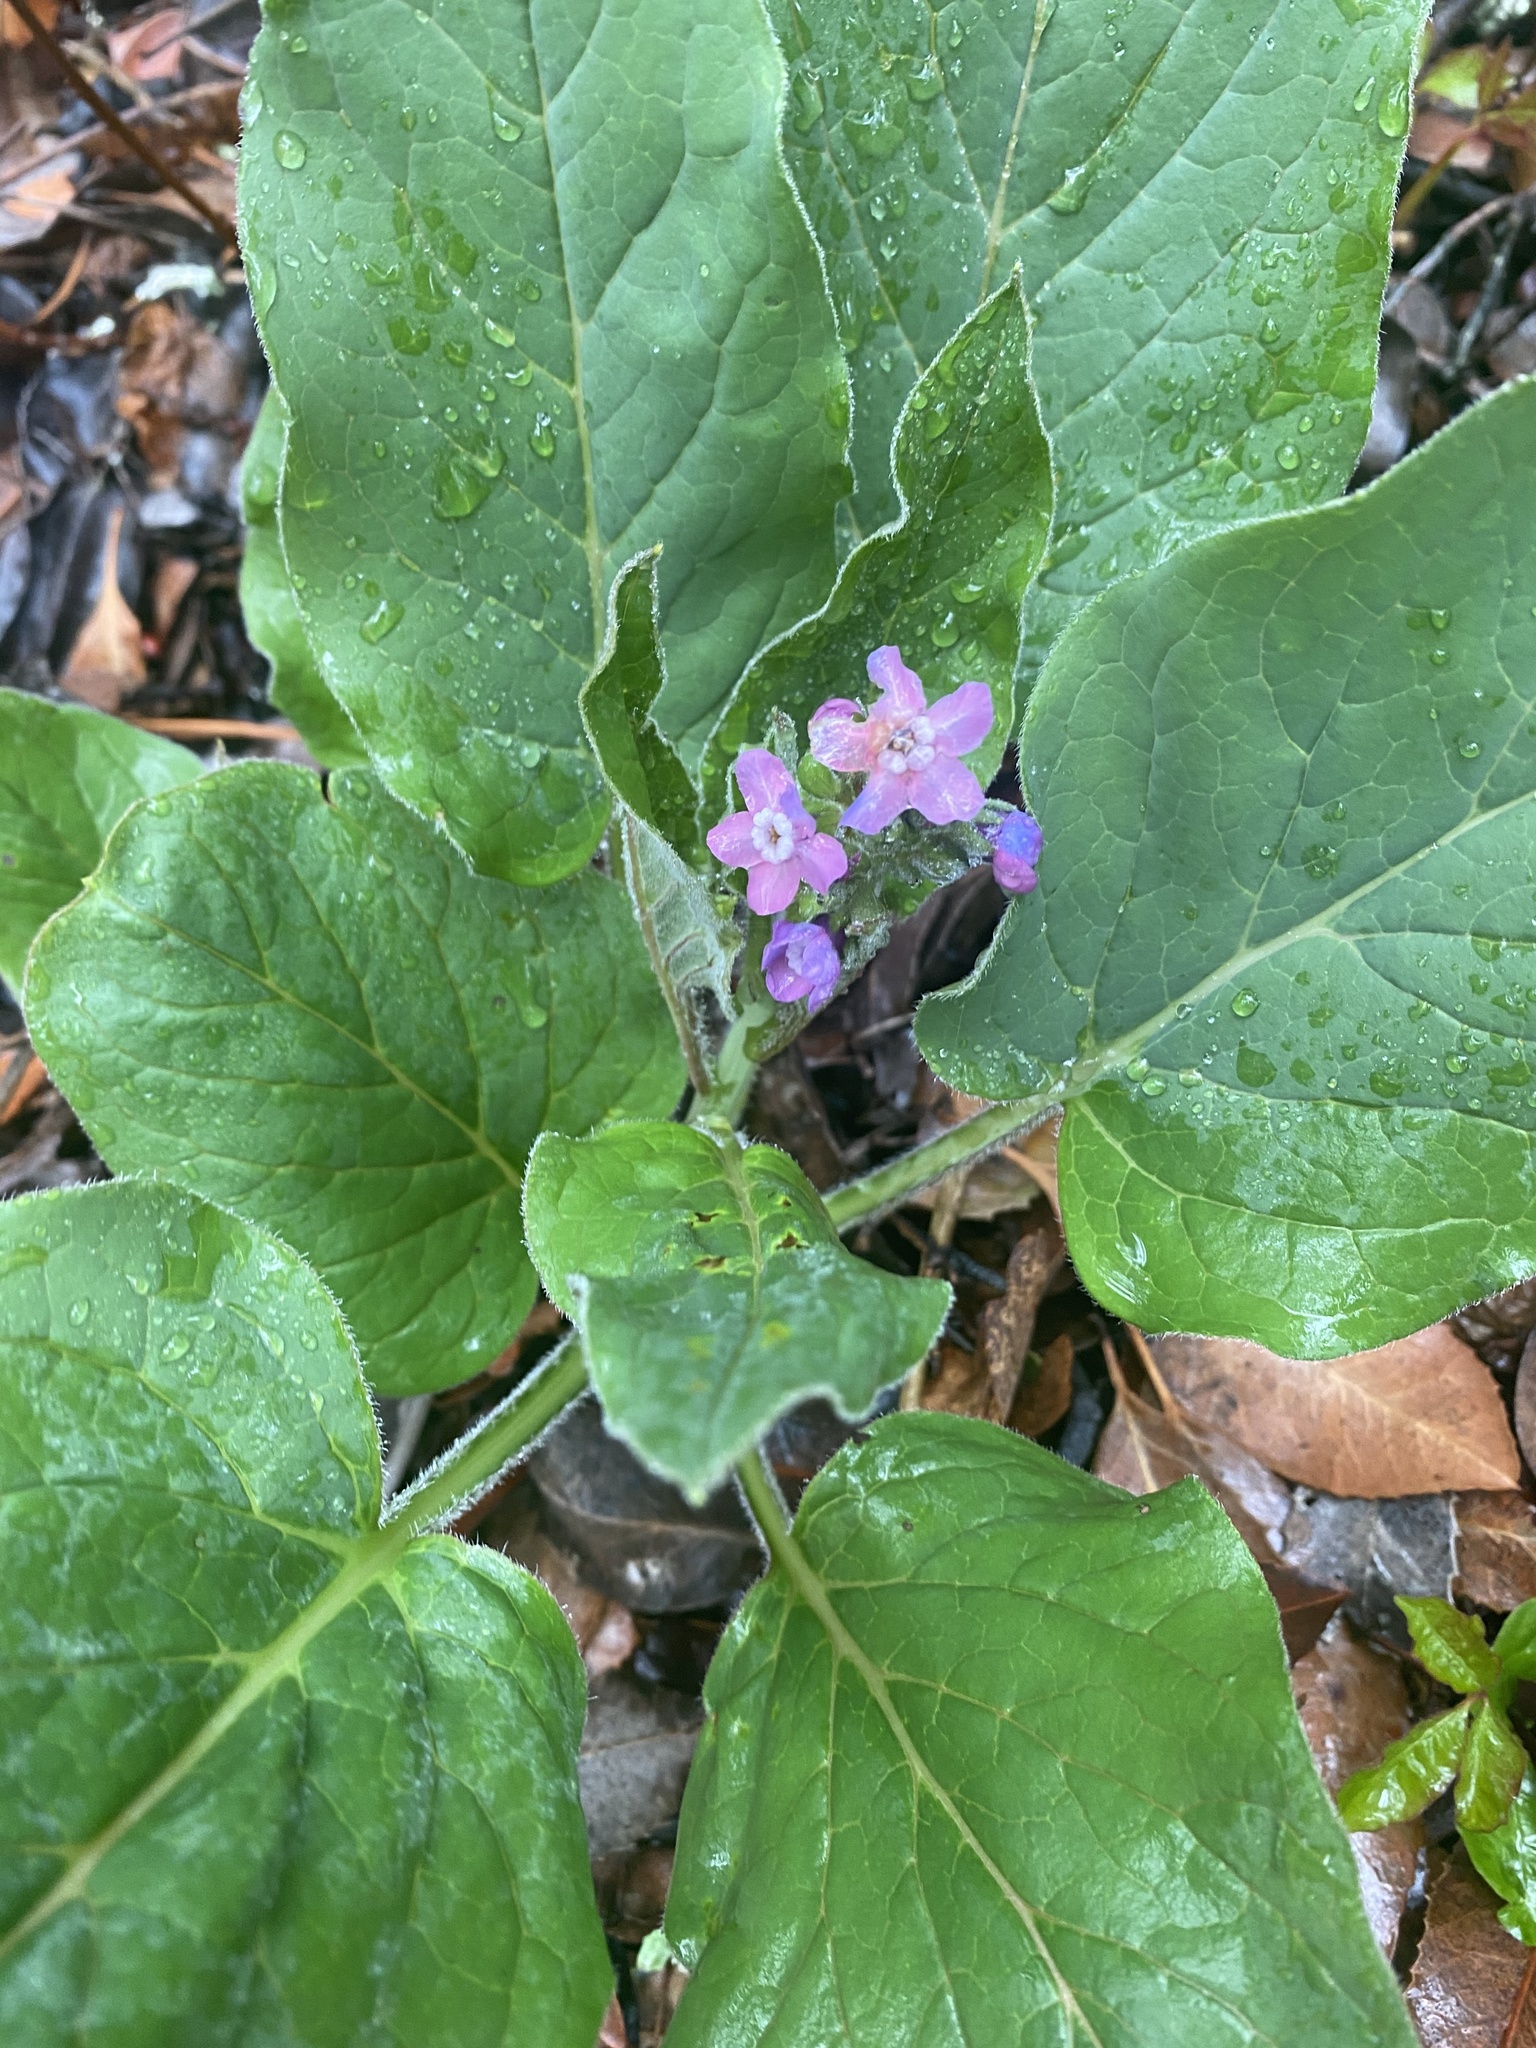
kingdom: Plantae
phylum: Tracheophyta
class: Magnoliopsida
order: Boraginales
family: Boraginaceae
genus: Adelinia
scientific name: Adelinia grande
